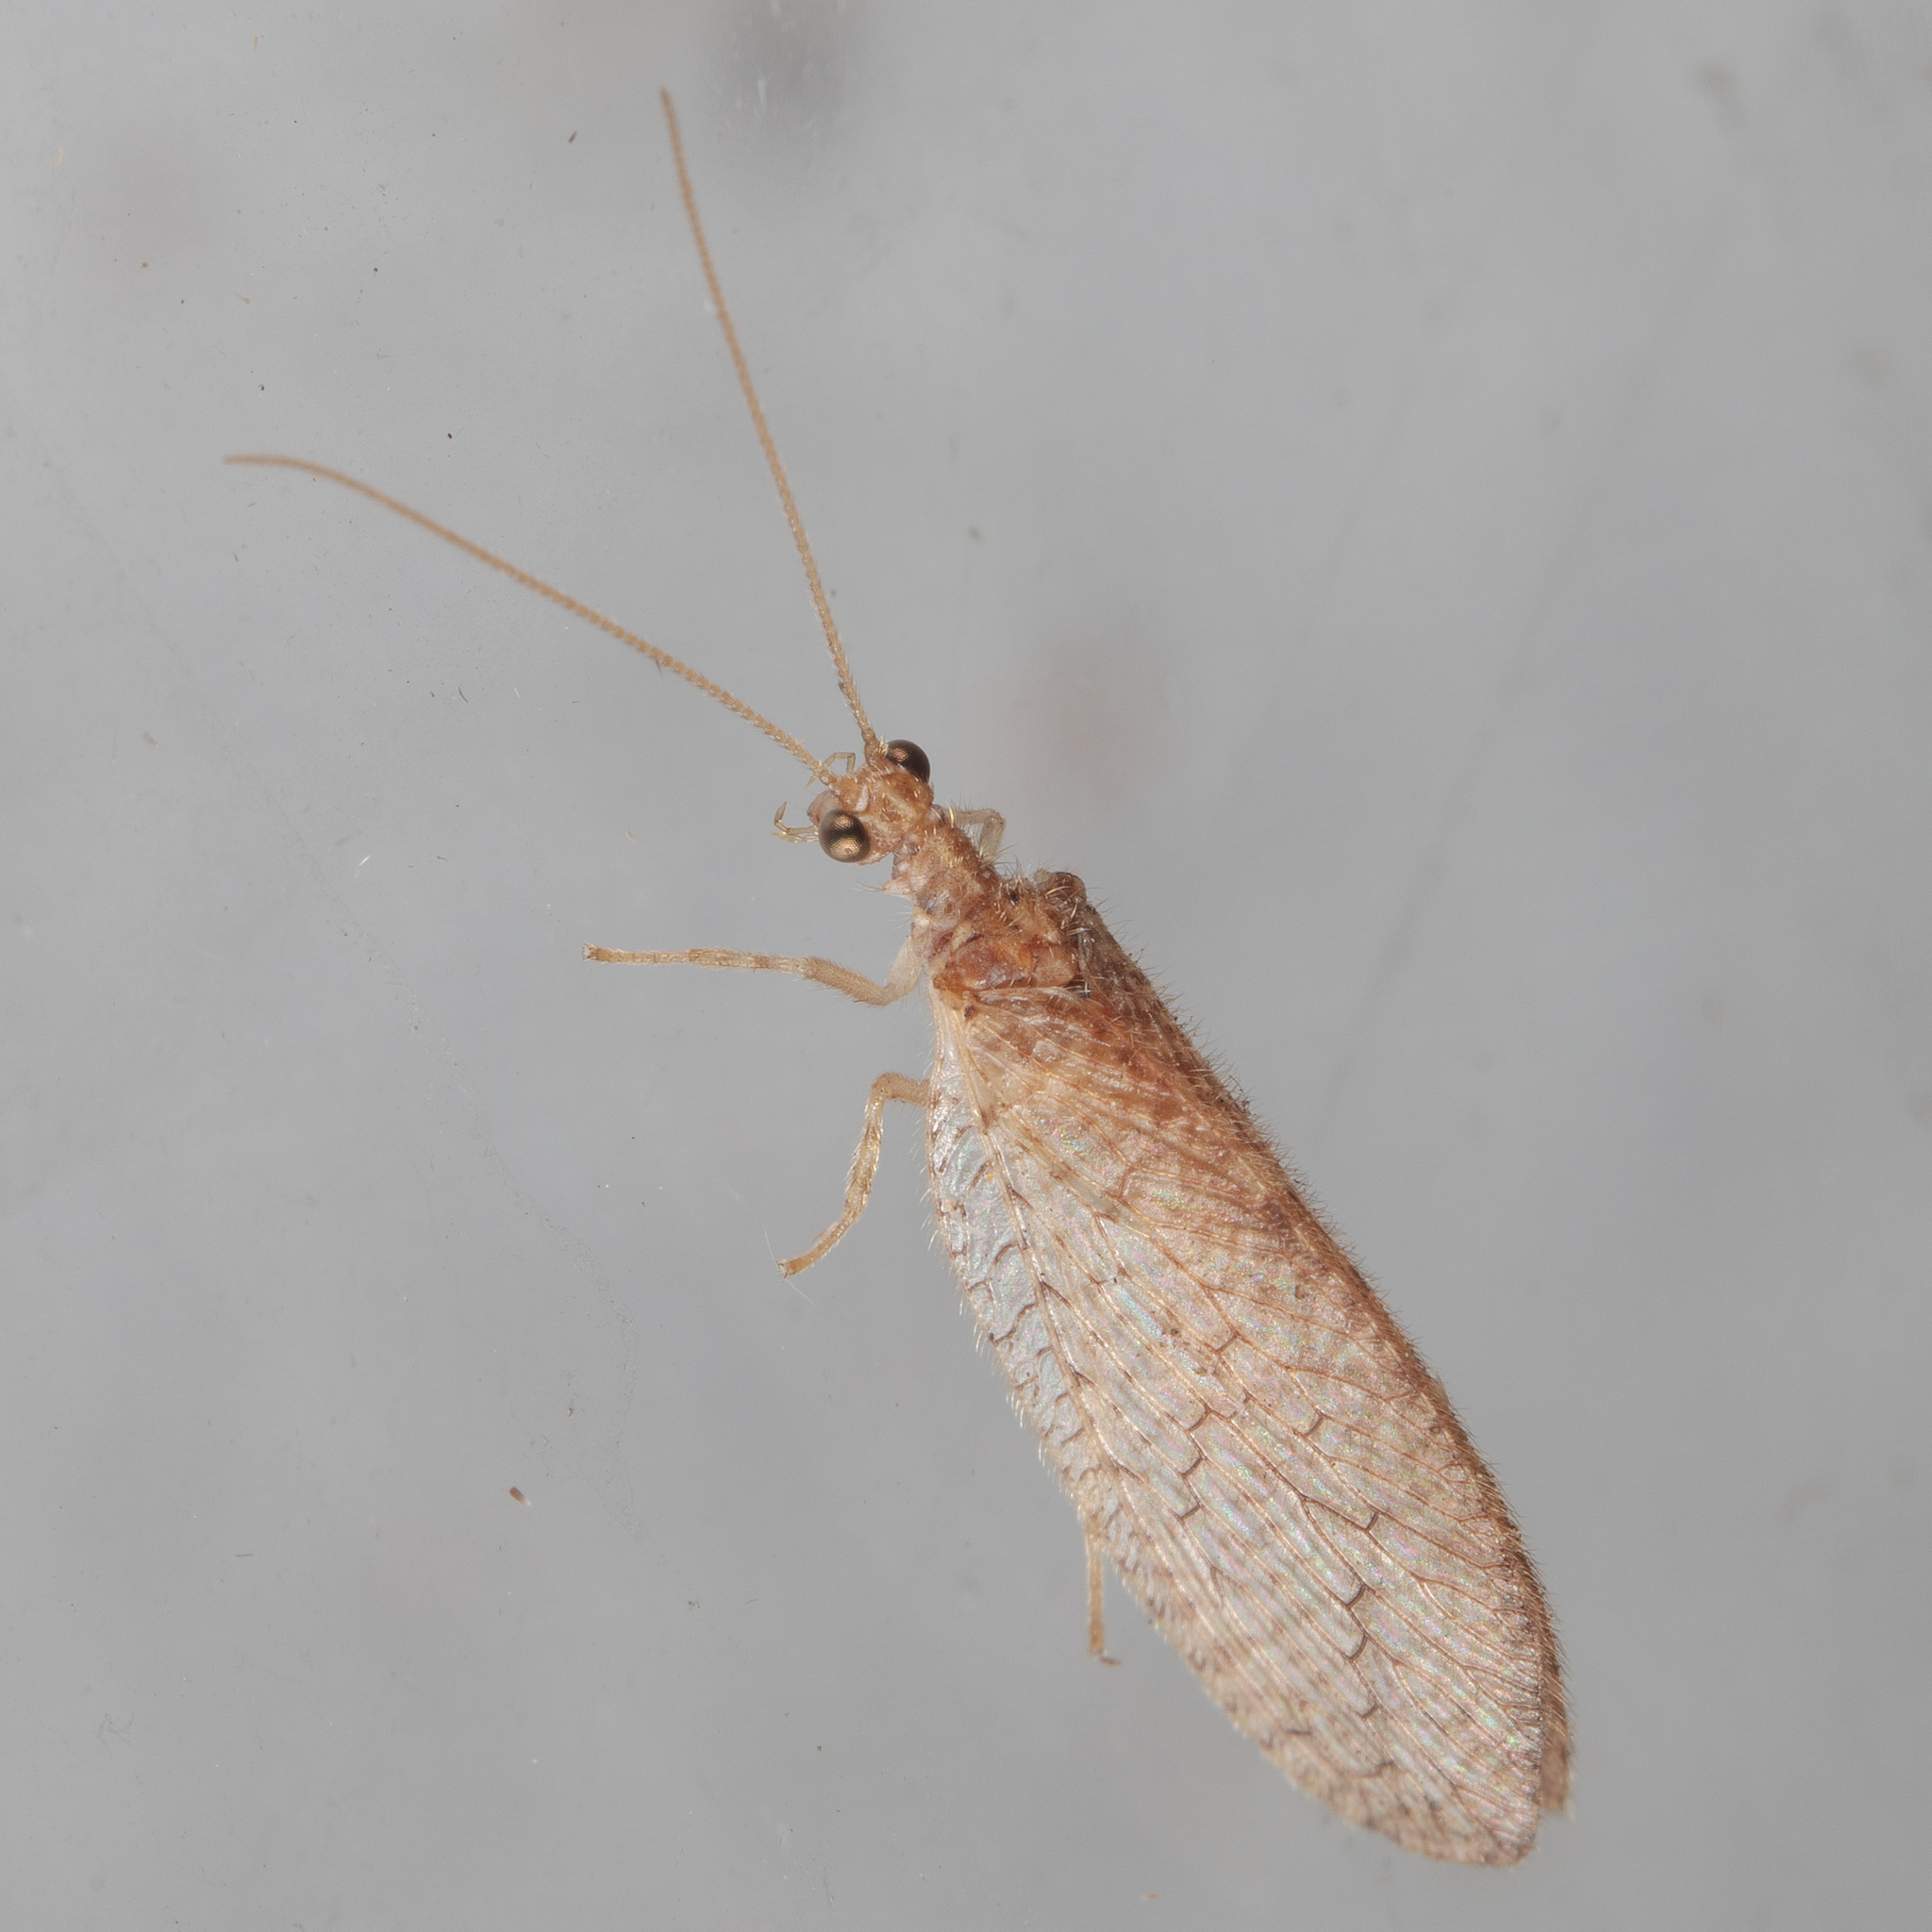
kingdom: Animalia
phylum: Arthropoda
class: Insecta
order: Neuroptera
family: Hemerobiidae
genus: Micromus
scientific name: Micromus posticus
